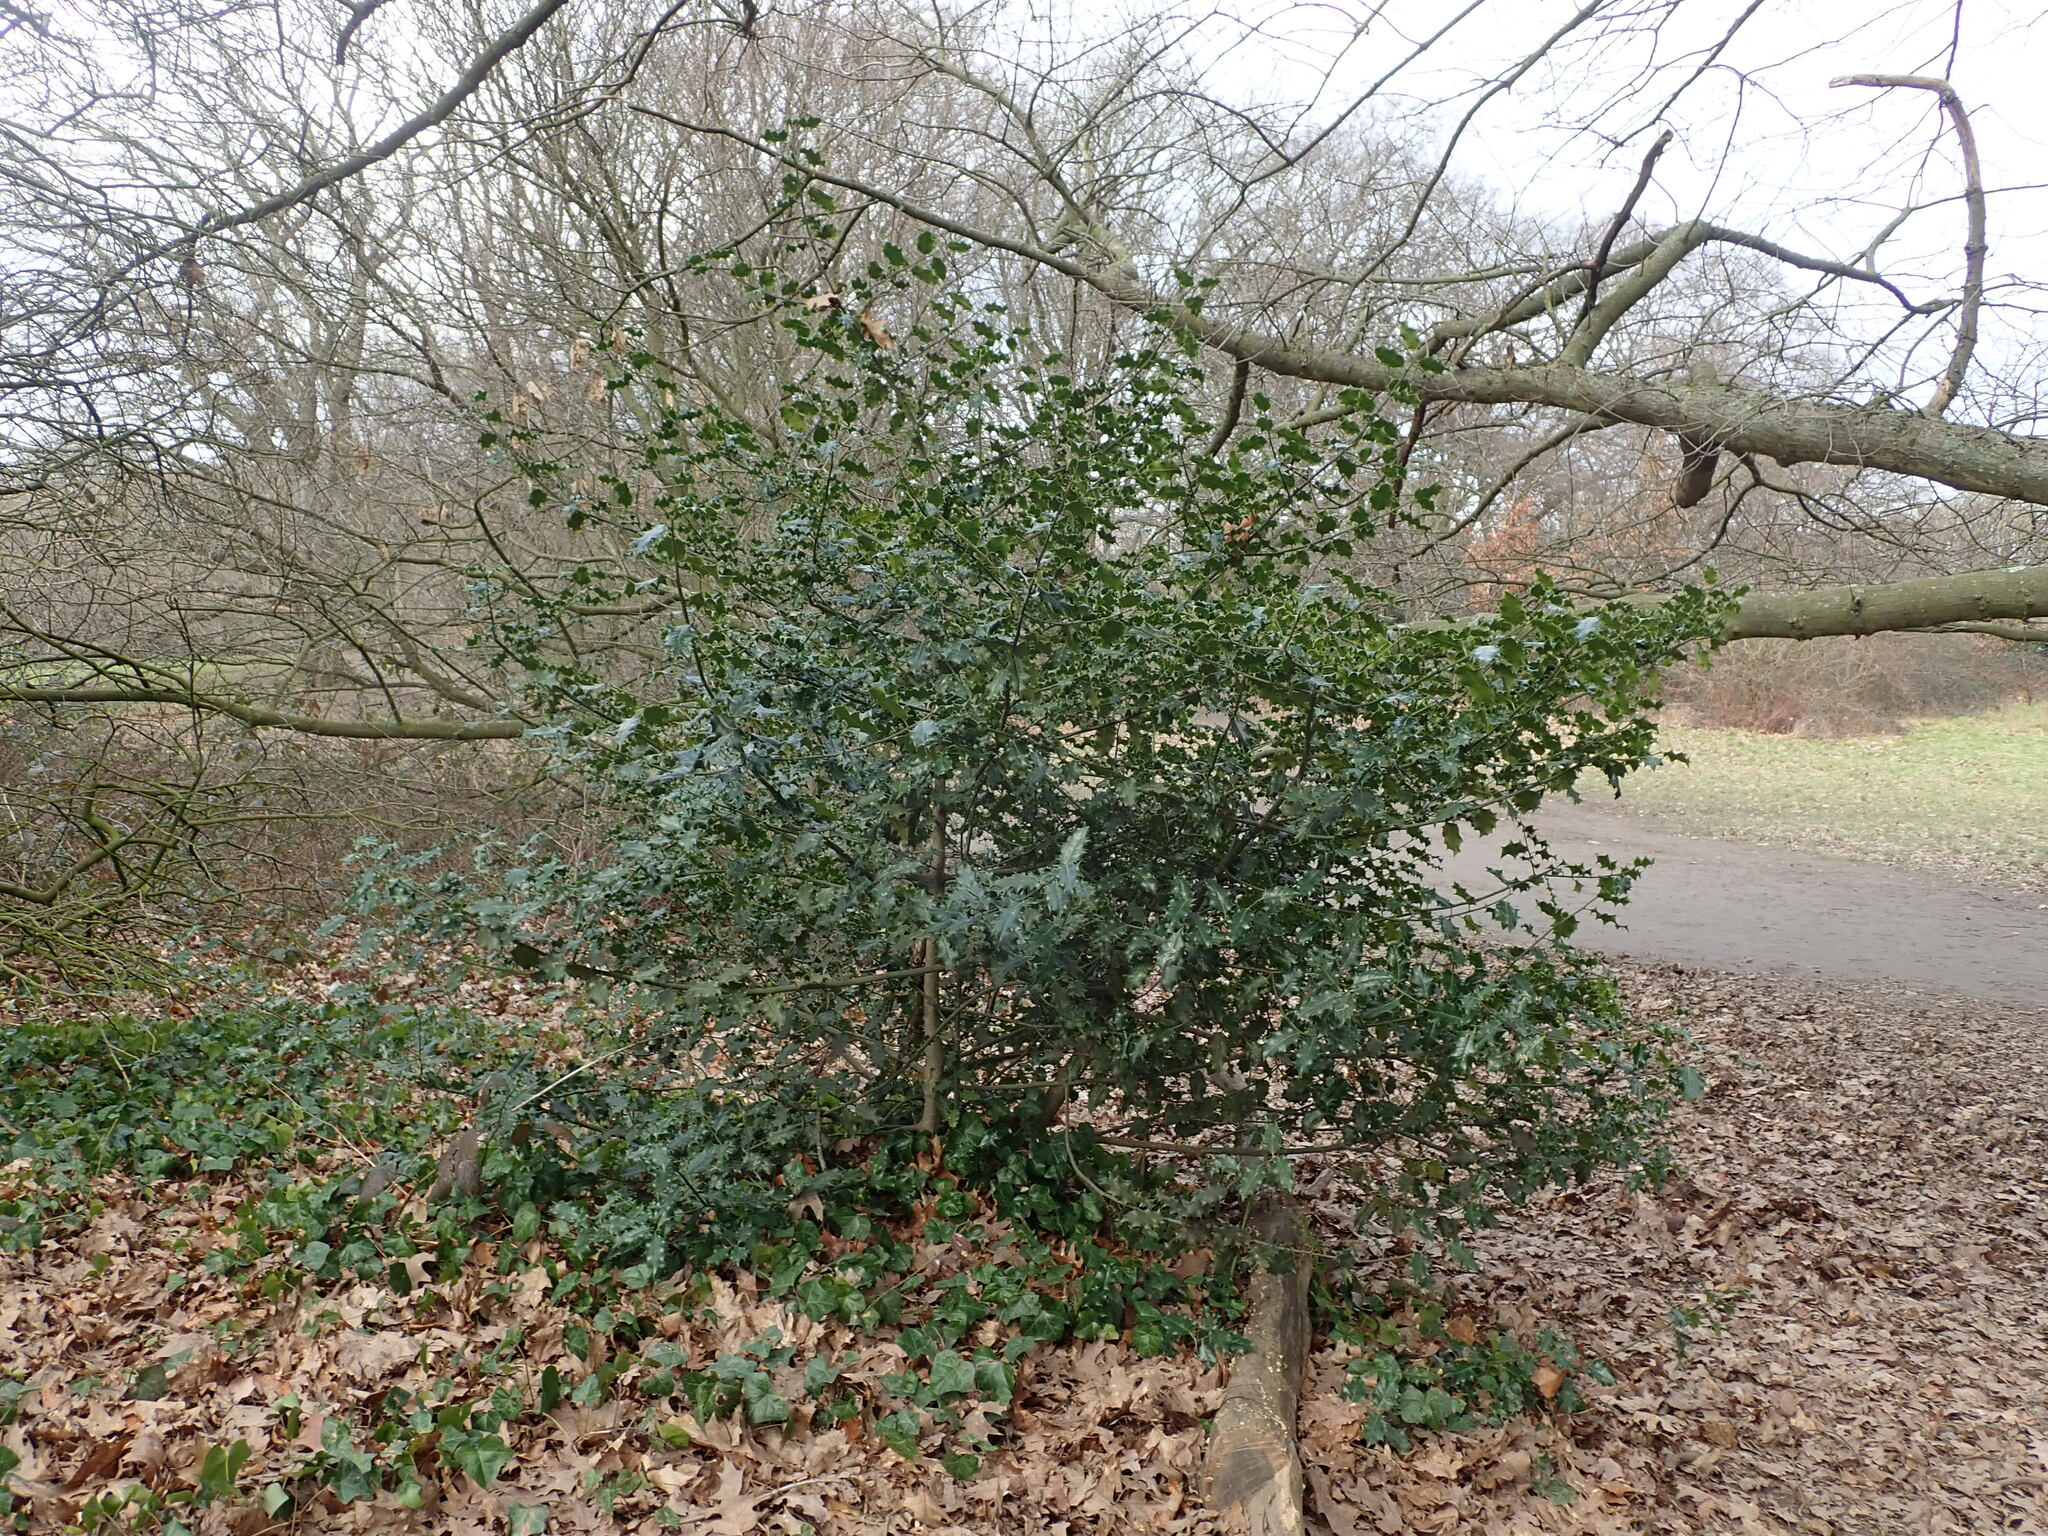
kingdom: Plantae
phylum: Tracheophyta
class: Magnoliopsida
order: Aquifoliales
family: Aquifoliaceae
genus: Ilex
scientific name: Ilex aquifolium
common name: English holly
